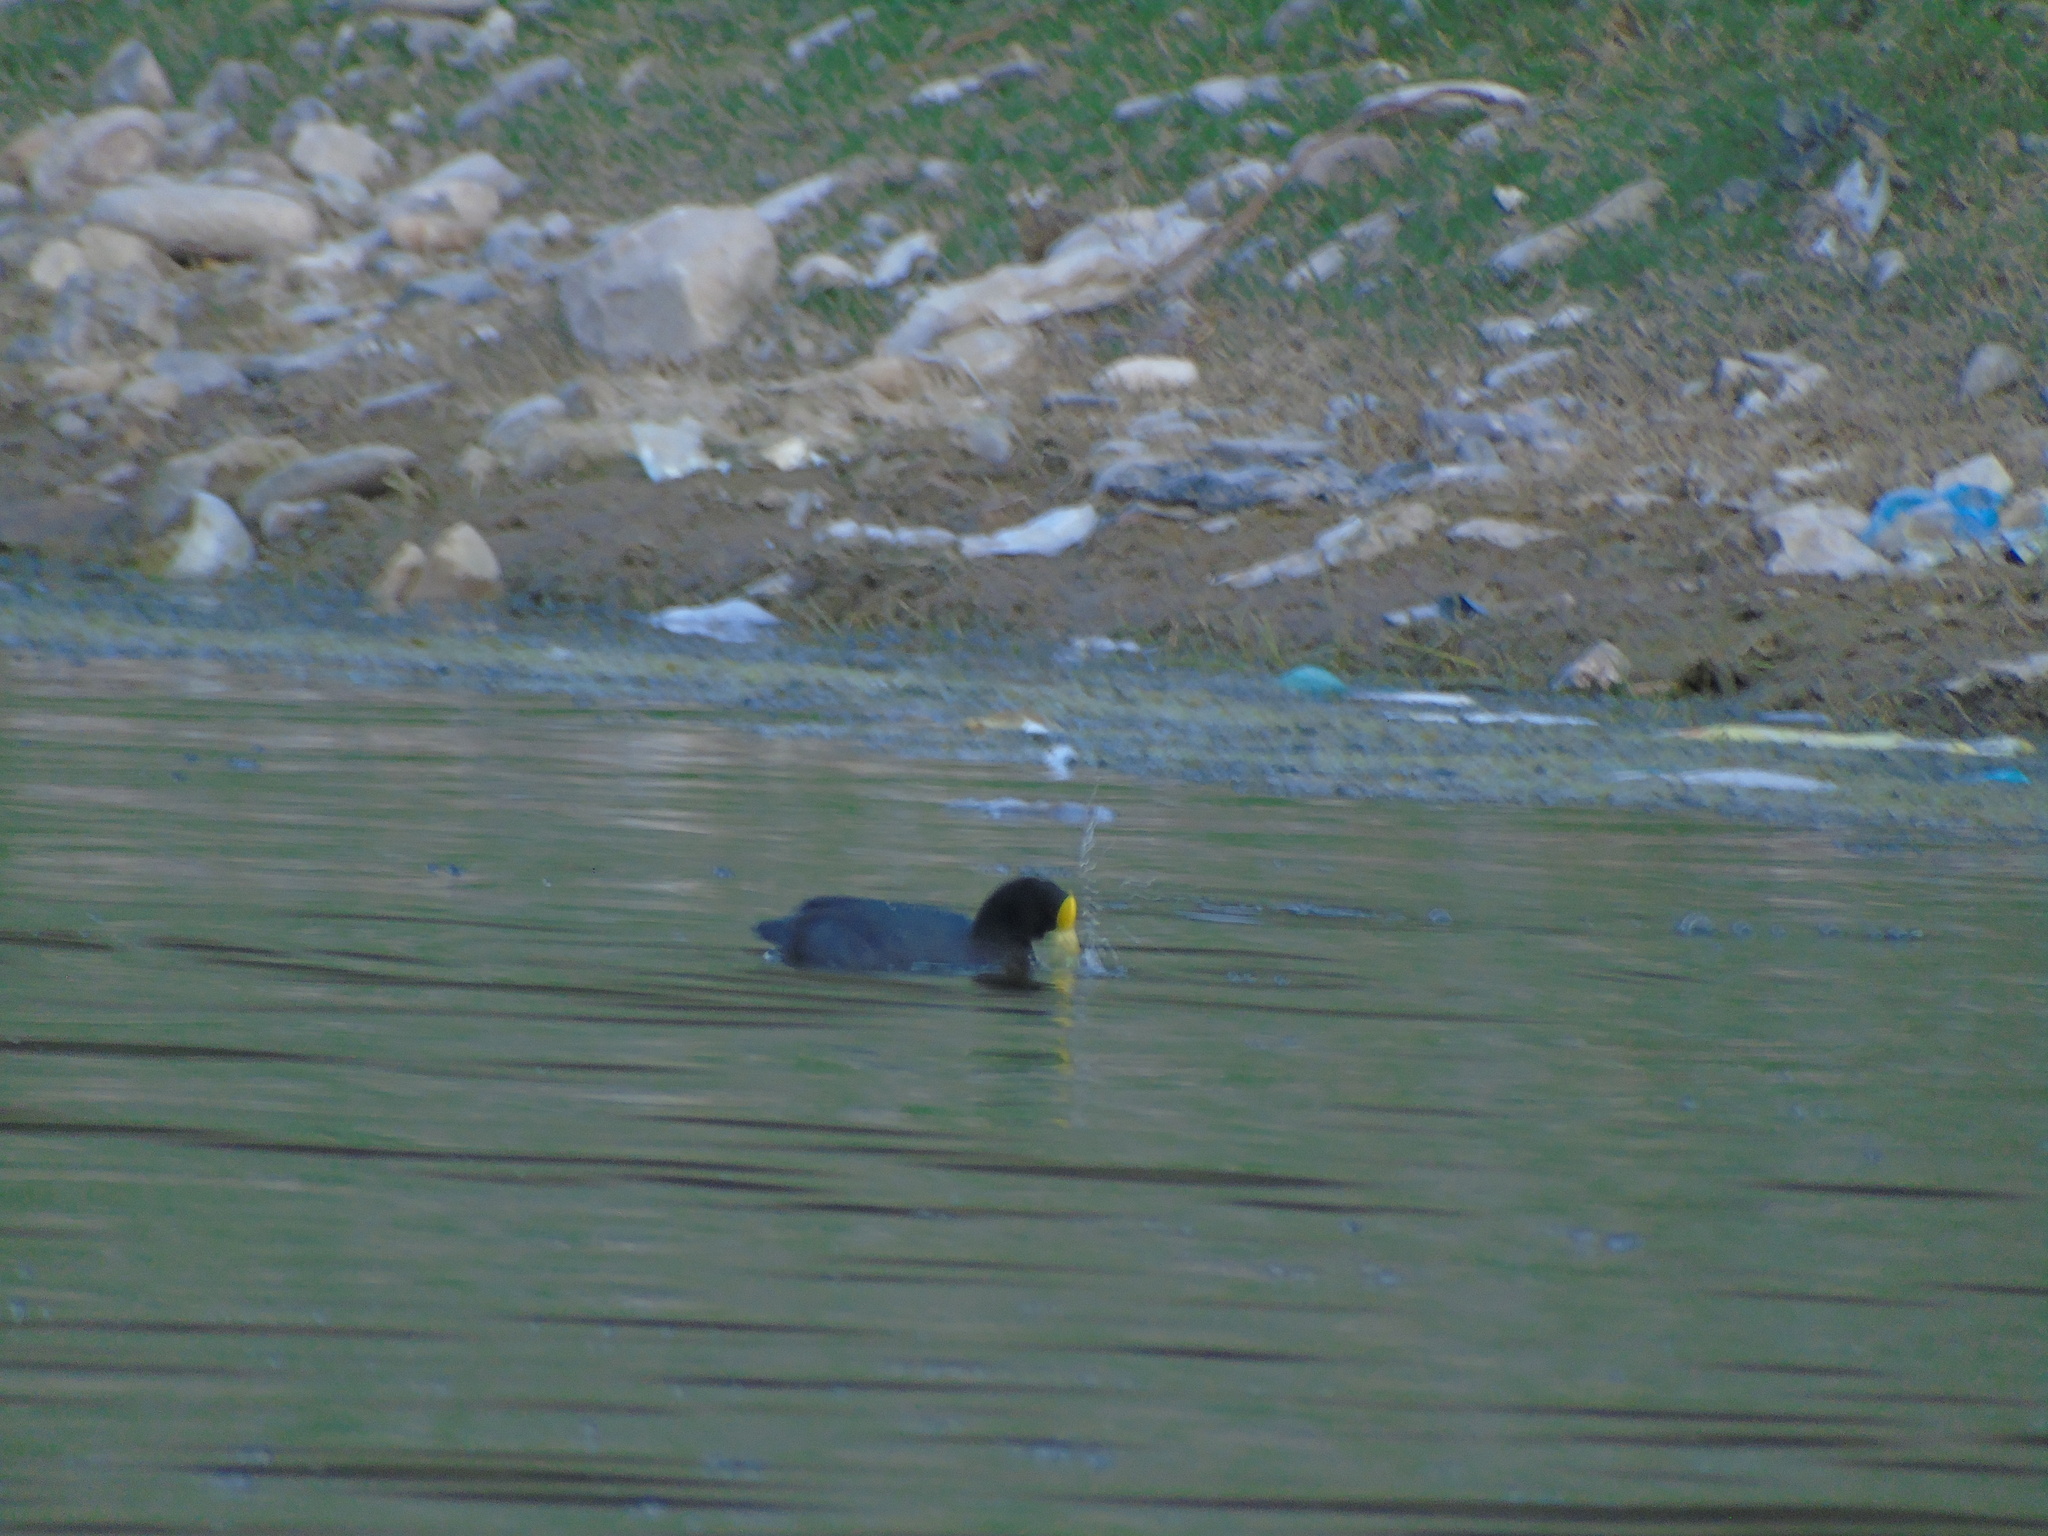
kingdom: Animalia
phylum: Chordata
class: Aves
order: Gruiformes
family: Rallidae
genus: Fulica
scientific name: Fulica leucoptera
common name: White-winged coot
